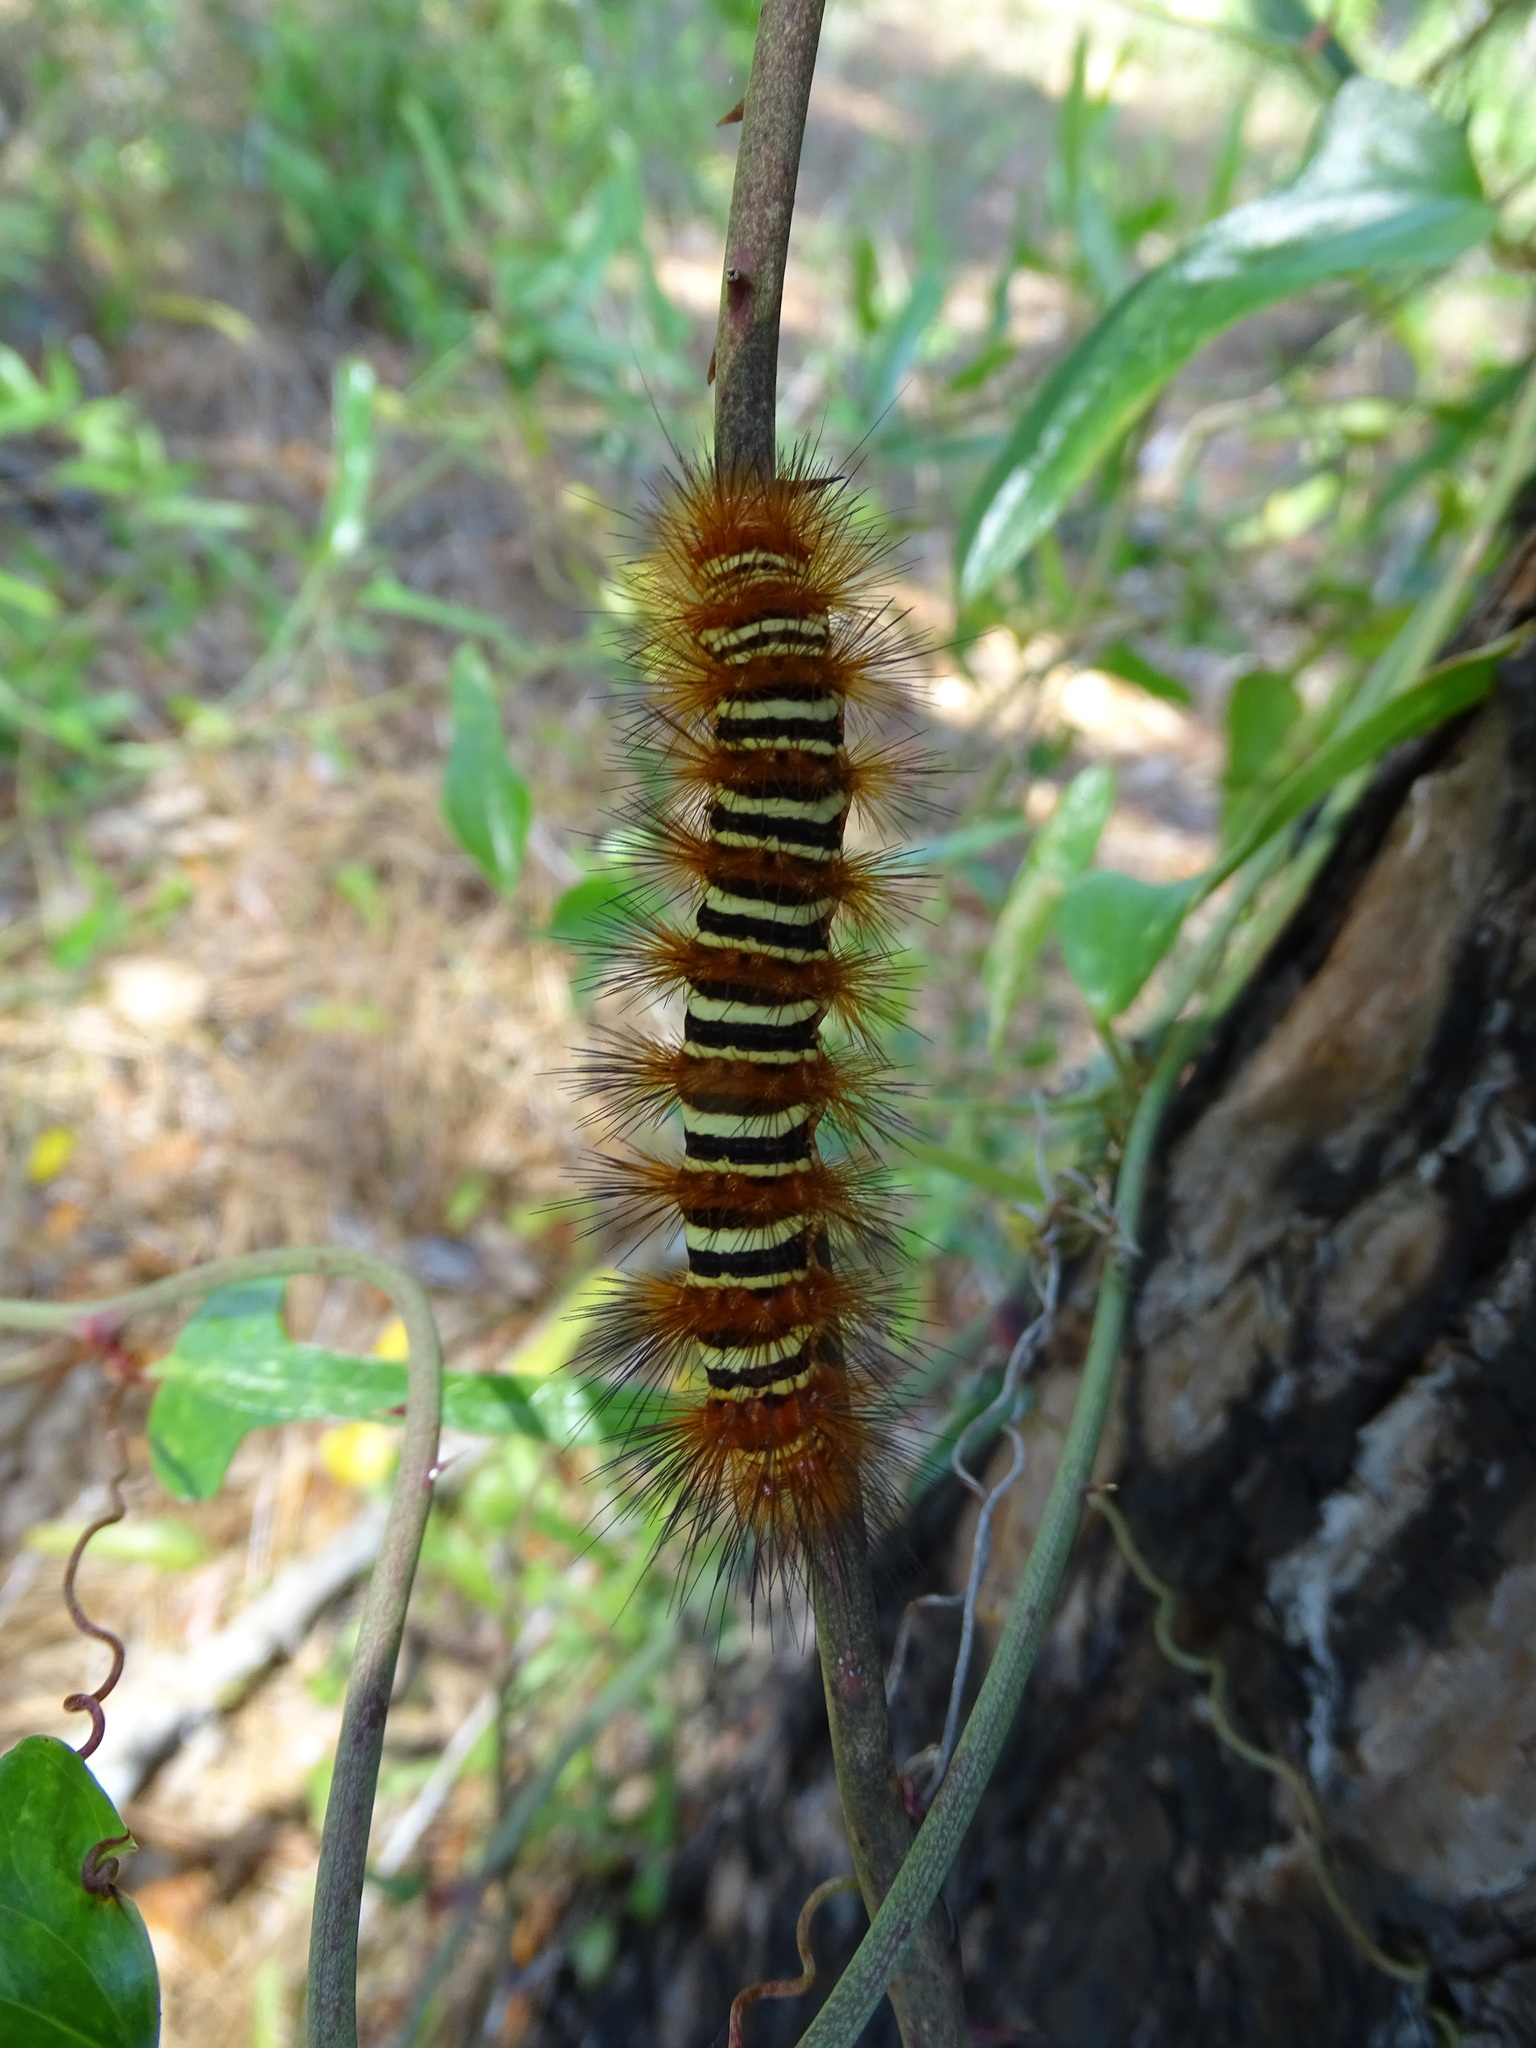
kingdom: Animalia
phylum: Arthropoda
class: Insecta
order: Lepidoptera
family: Erebidae
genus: Seirarctia
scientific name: Seirarctia echo
